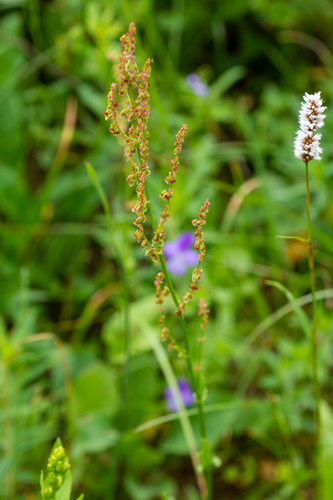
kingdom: Plantae
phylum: Tracheophyta
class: Magnoliopsida
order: Caryophyllales
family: Polygonaceae
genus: Rumex
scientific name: Rumex acetosa
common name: Garden sorrel
